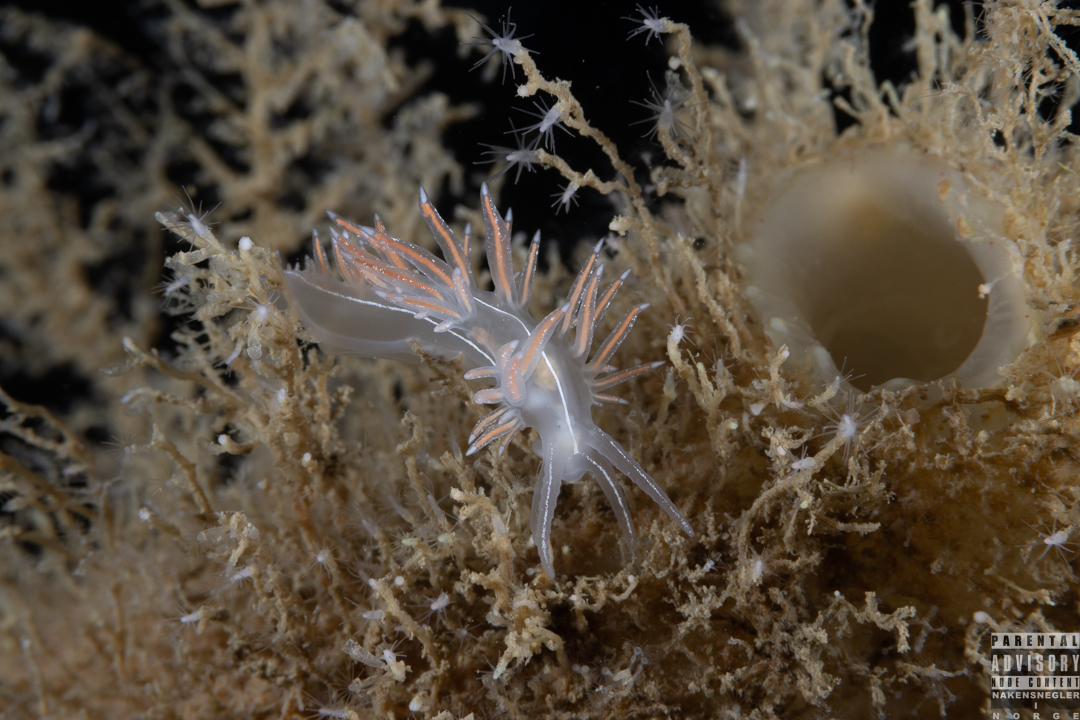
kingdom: Animalia
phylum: Mollusca
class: Gastropoda
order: Nudibranchia
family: Coryphellidae
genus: Coryphella
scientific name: Coryphella chriskaugei
